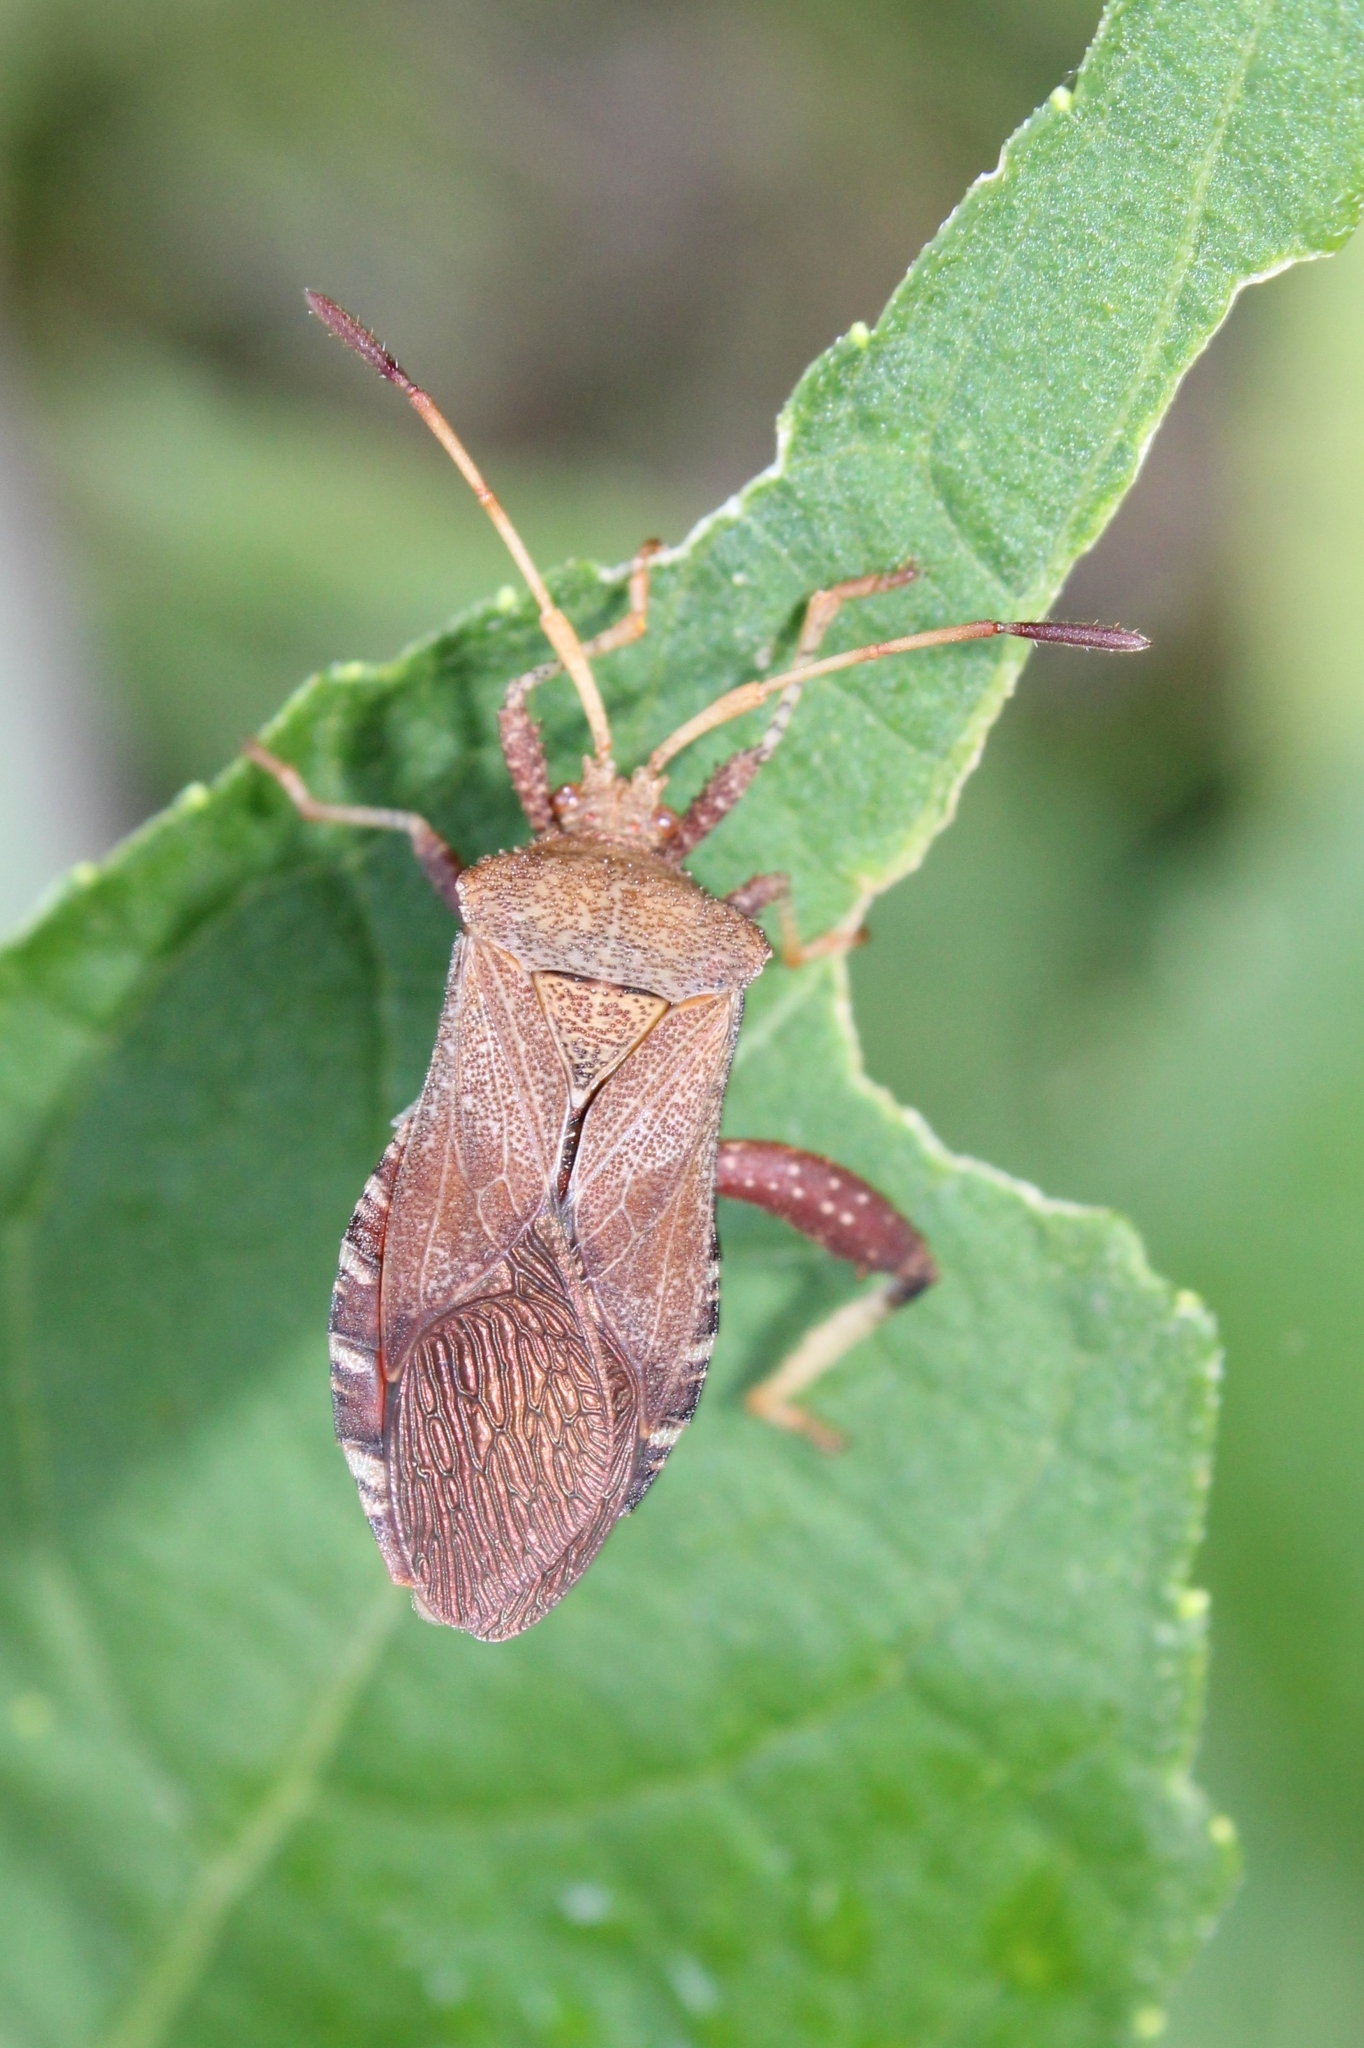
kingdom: Animalia
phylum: Arthropoda
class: Insecta
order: Hemiptera
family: Coreidae
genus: Euthochtha
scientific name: Euthochtha galeator
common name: Helmeted squash bug
